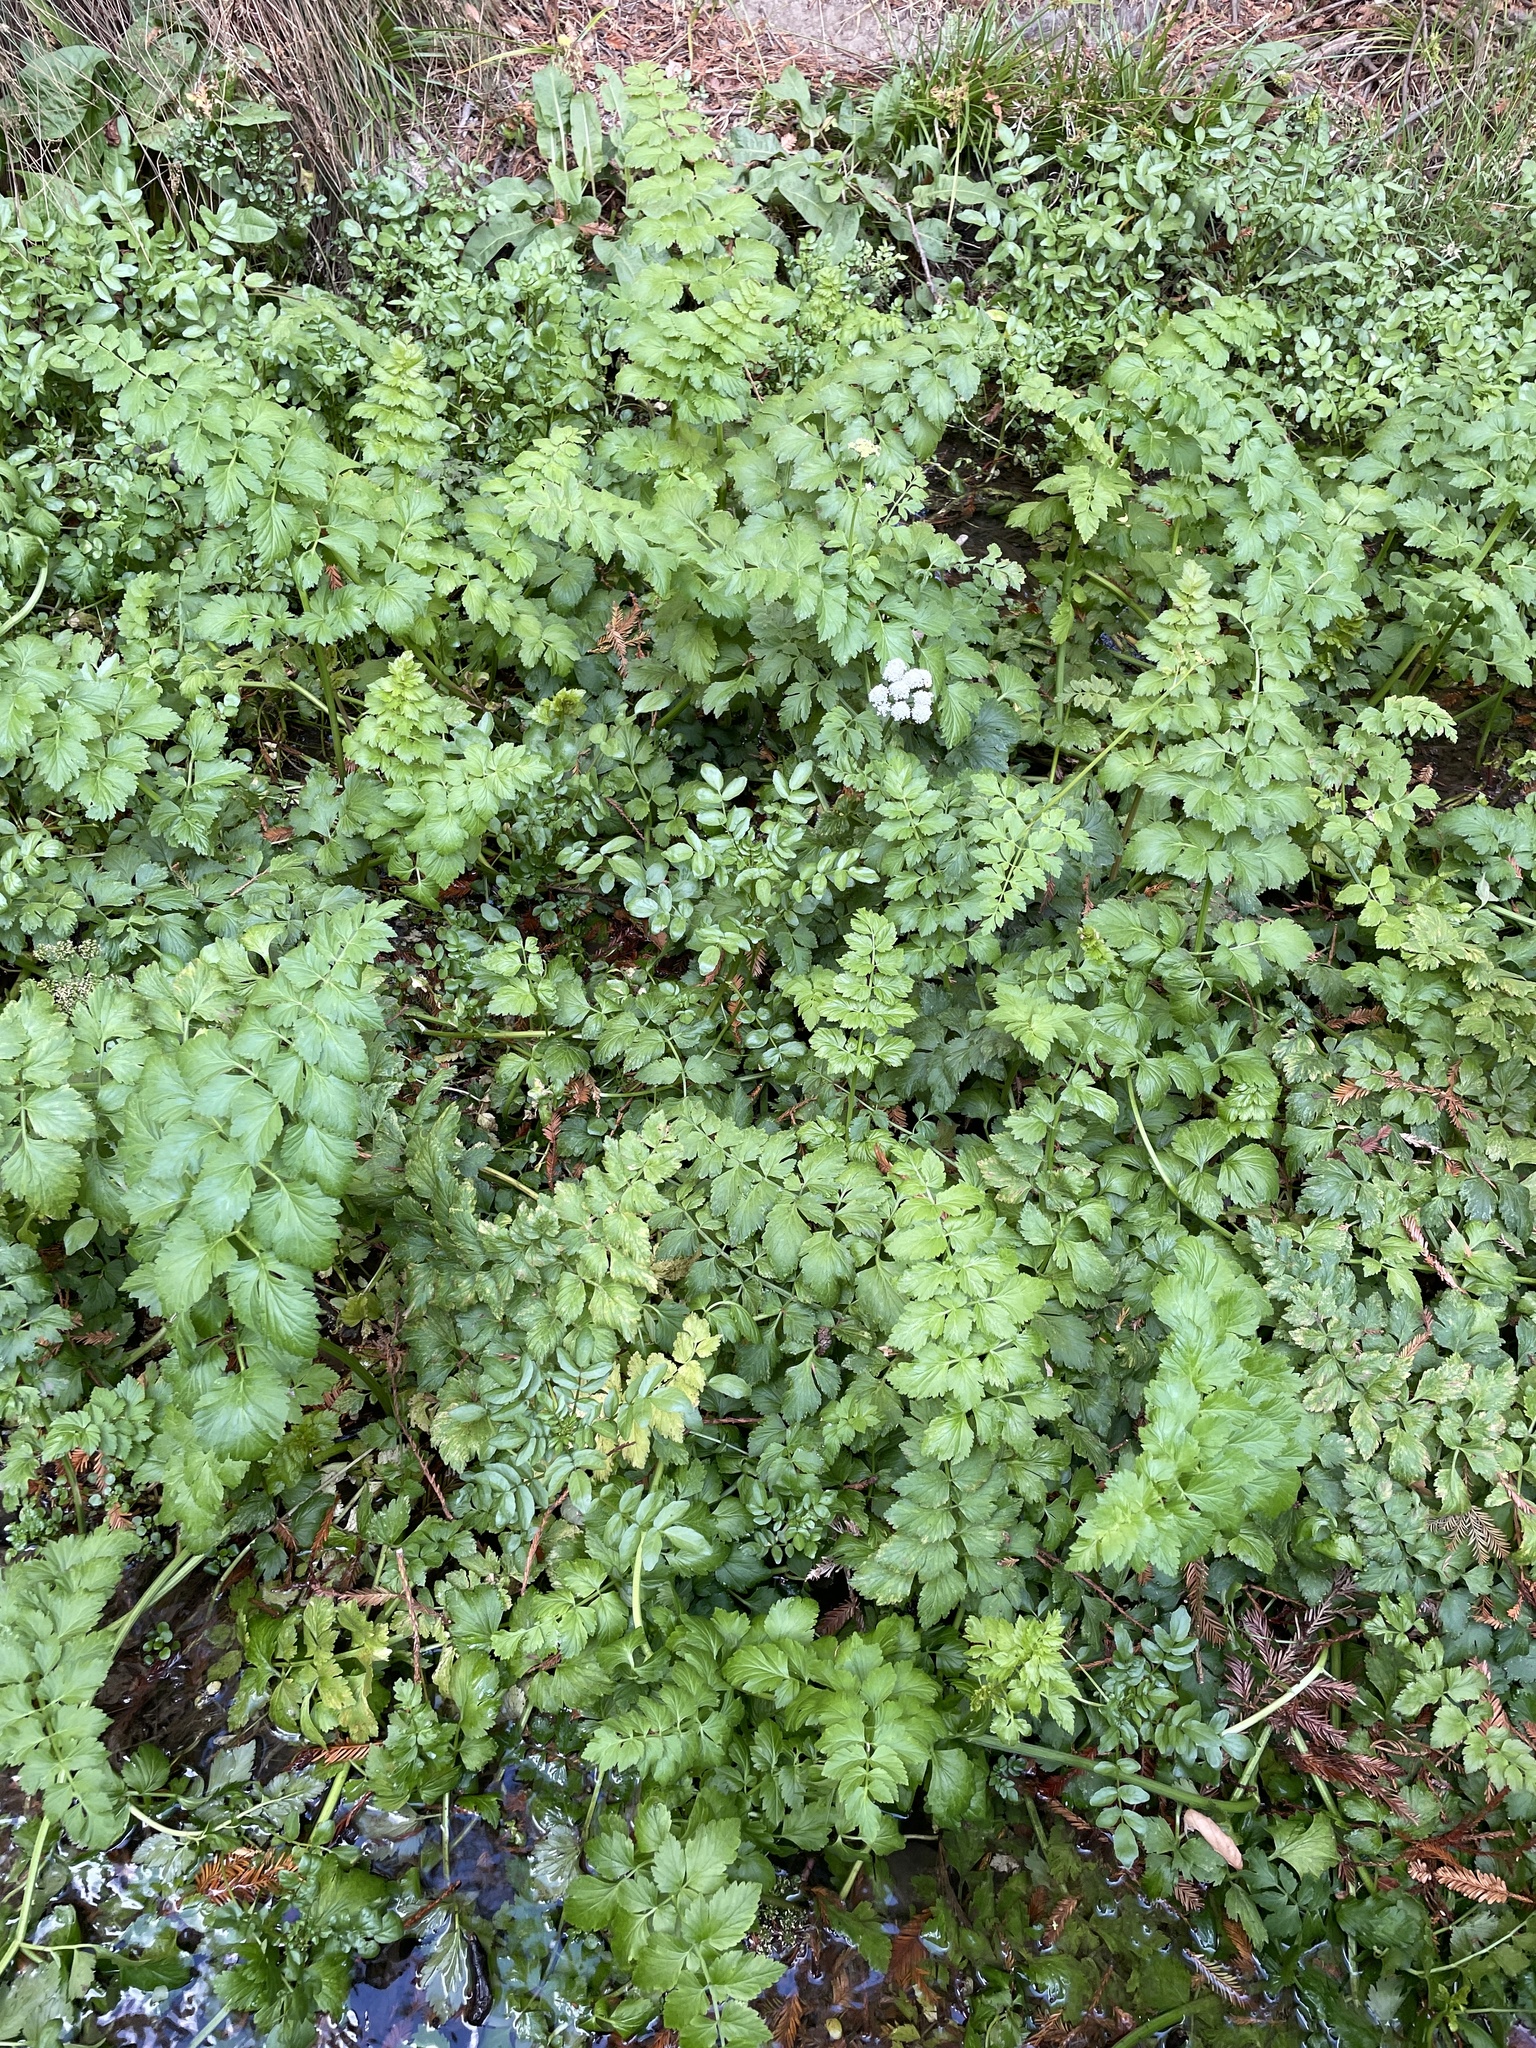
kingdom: Plantae
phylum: Tracheophyta
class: Magnoliopsida
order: Apiales
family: Apiaceae
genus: Oenanthe
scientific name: Oenanthe sarmentosa
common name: American water-parsley
